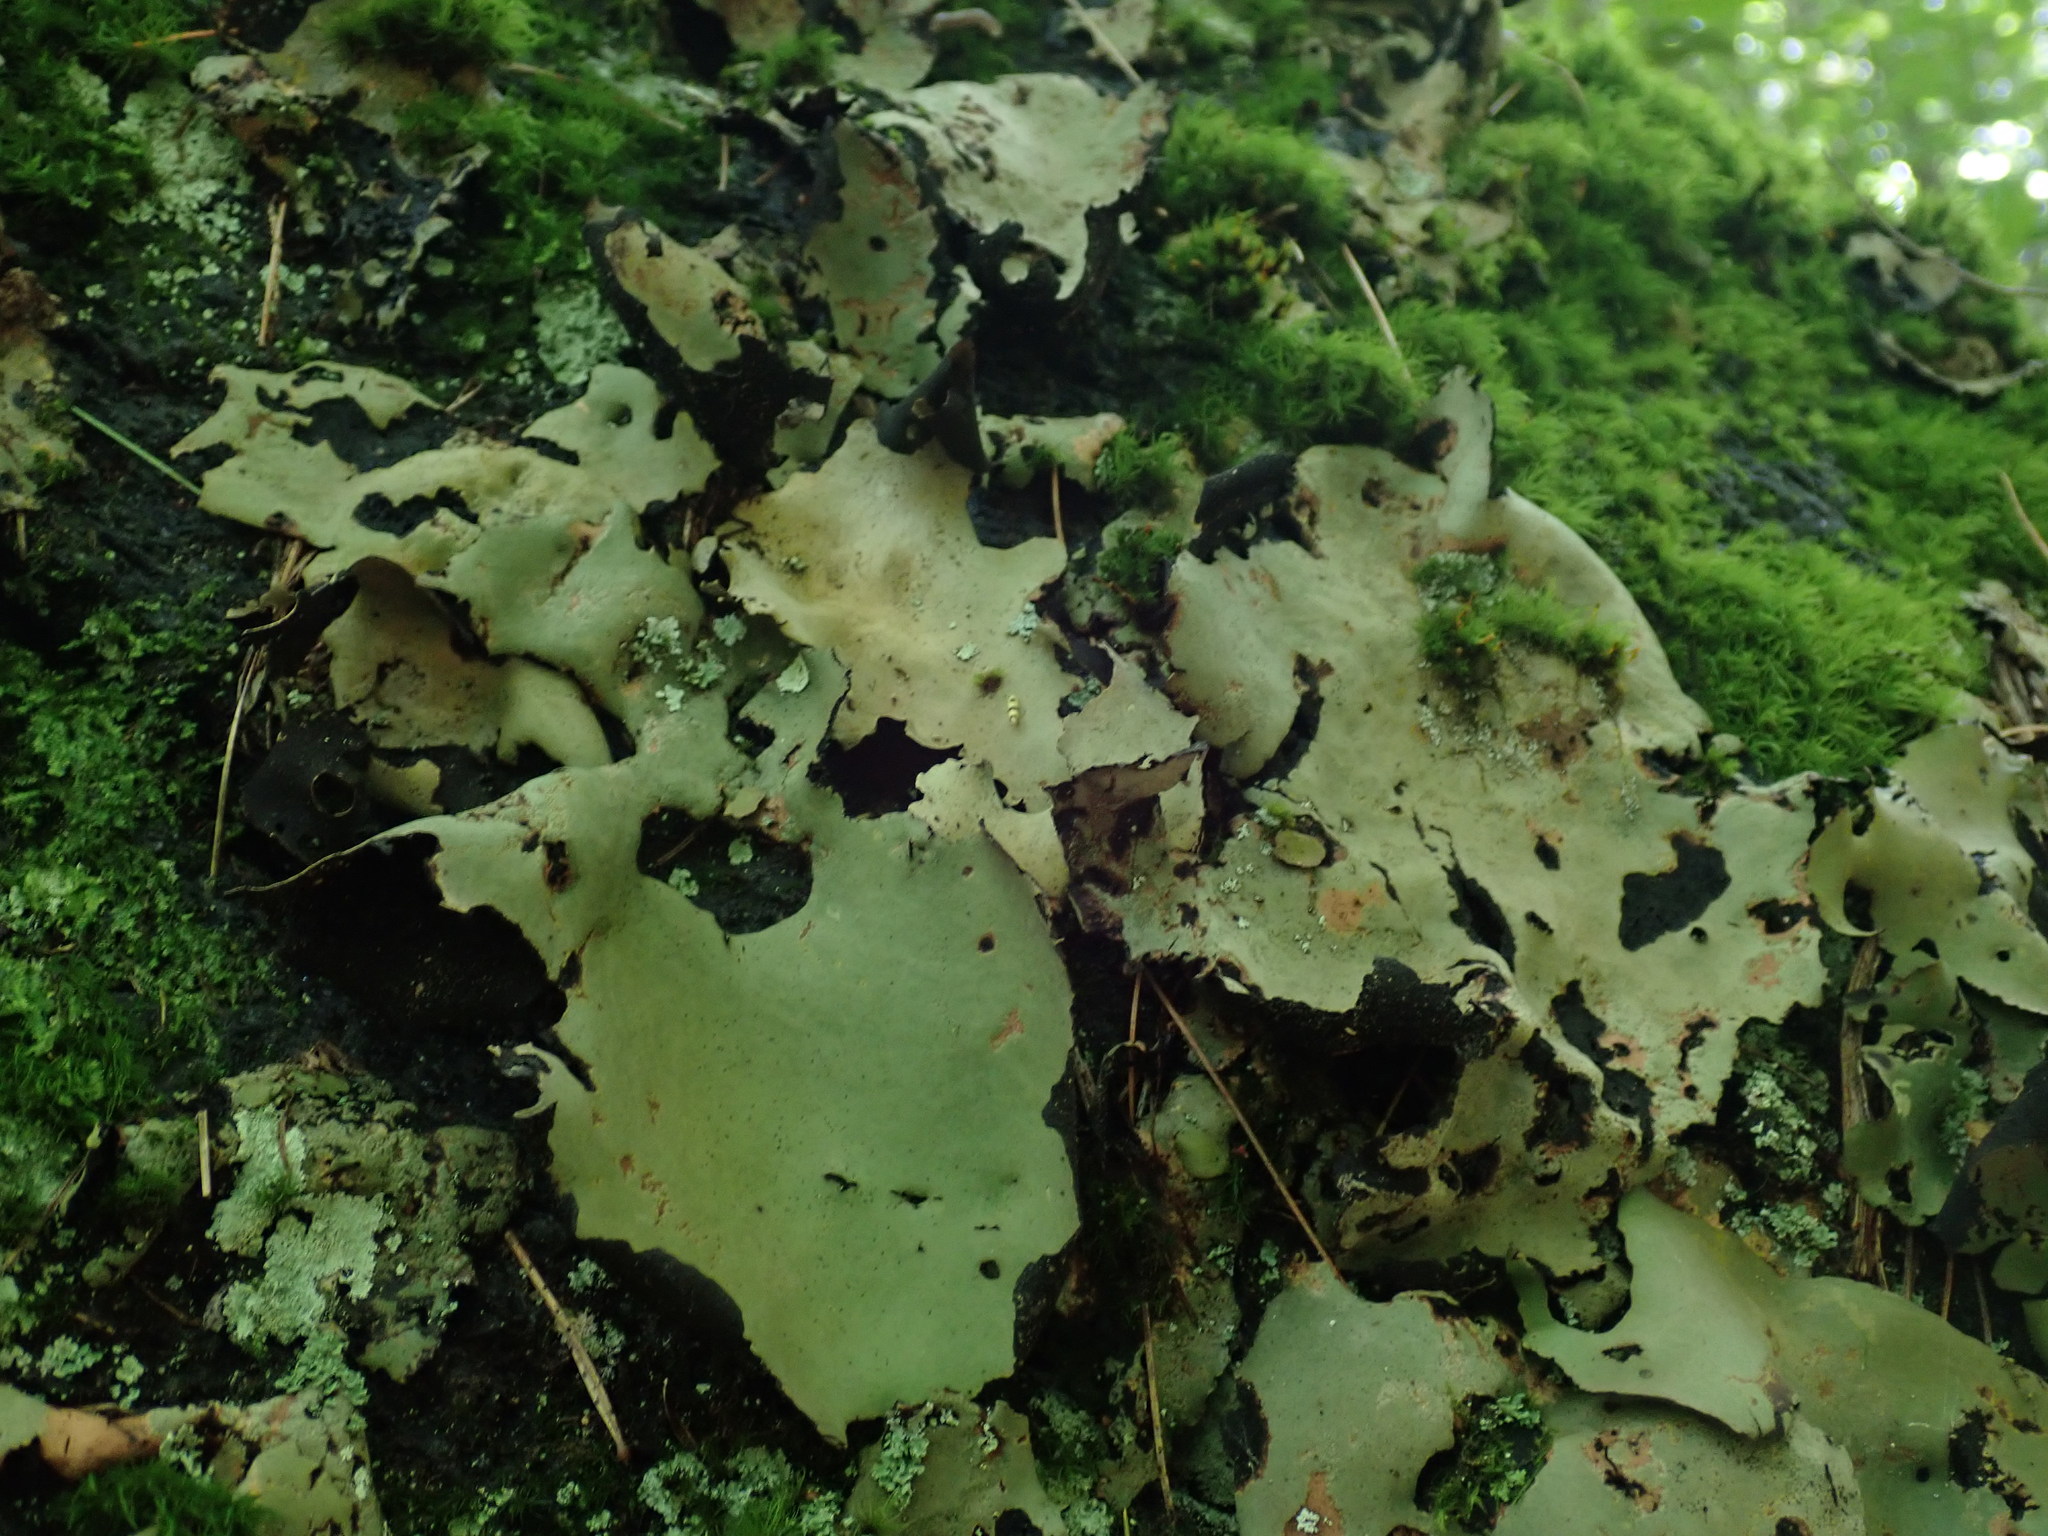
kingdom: Fungi
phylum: Ascomycota
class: Lecanoromycetes
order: Umbilicariales
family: Umbilicariaceae
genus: Umbilicaria
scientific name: Umbilicaria mammulata
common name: Smooth rock tripe
